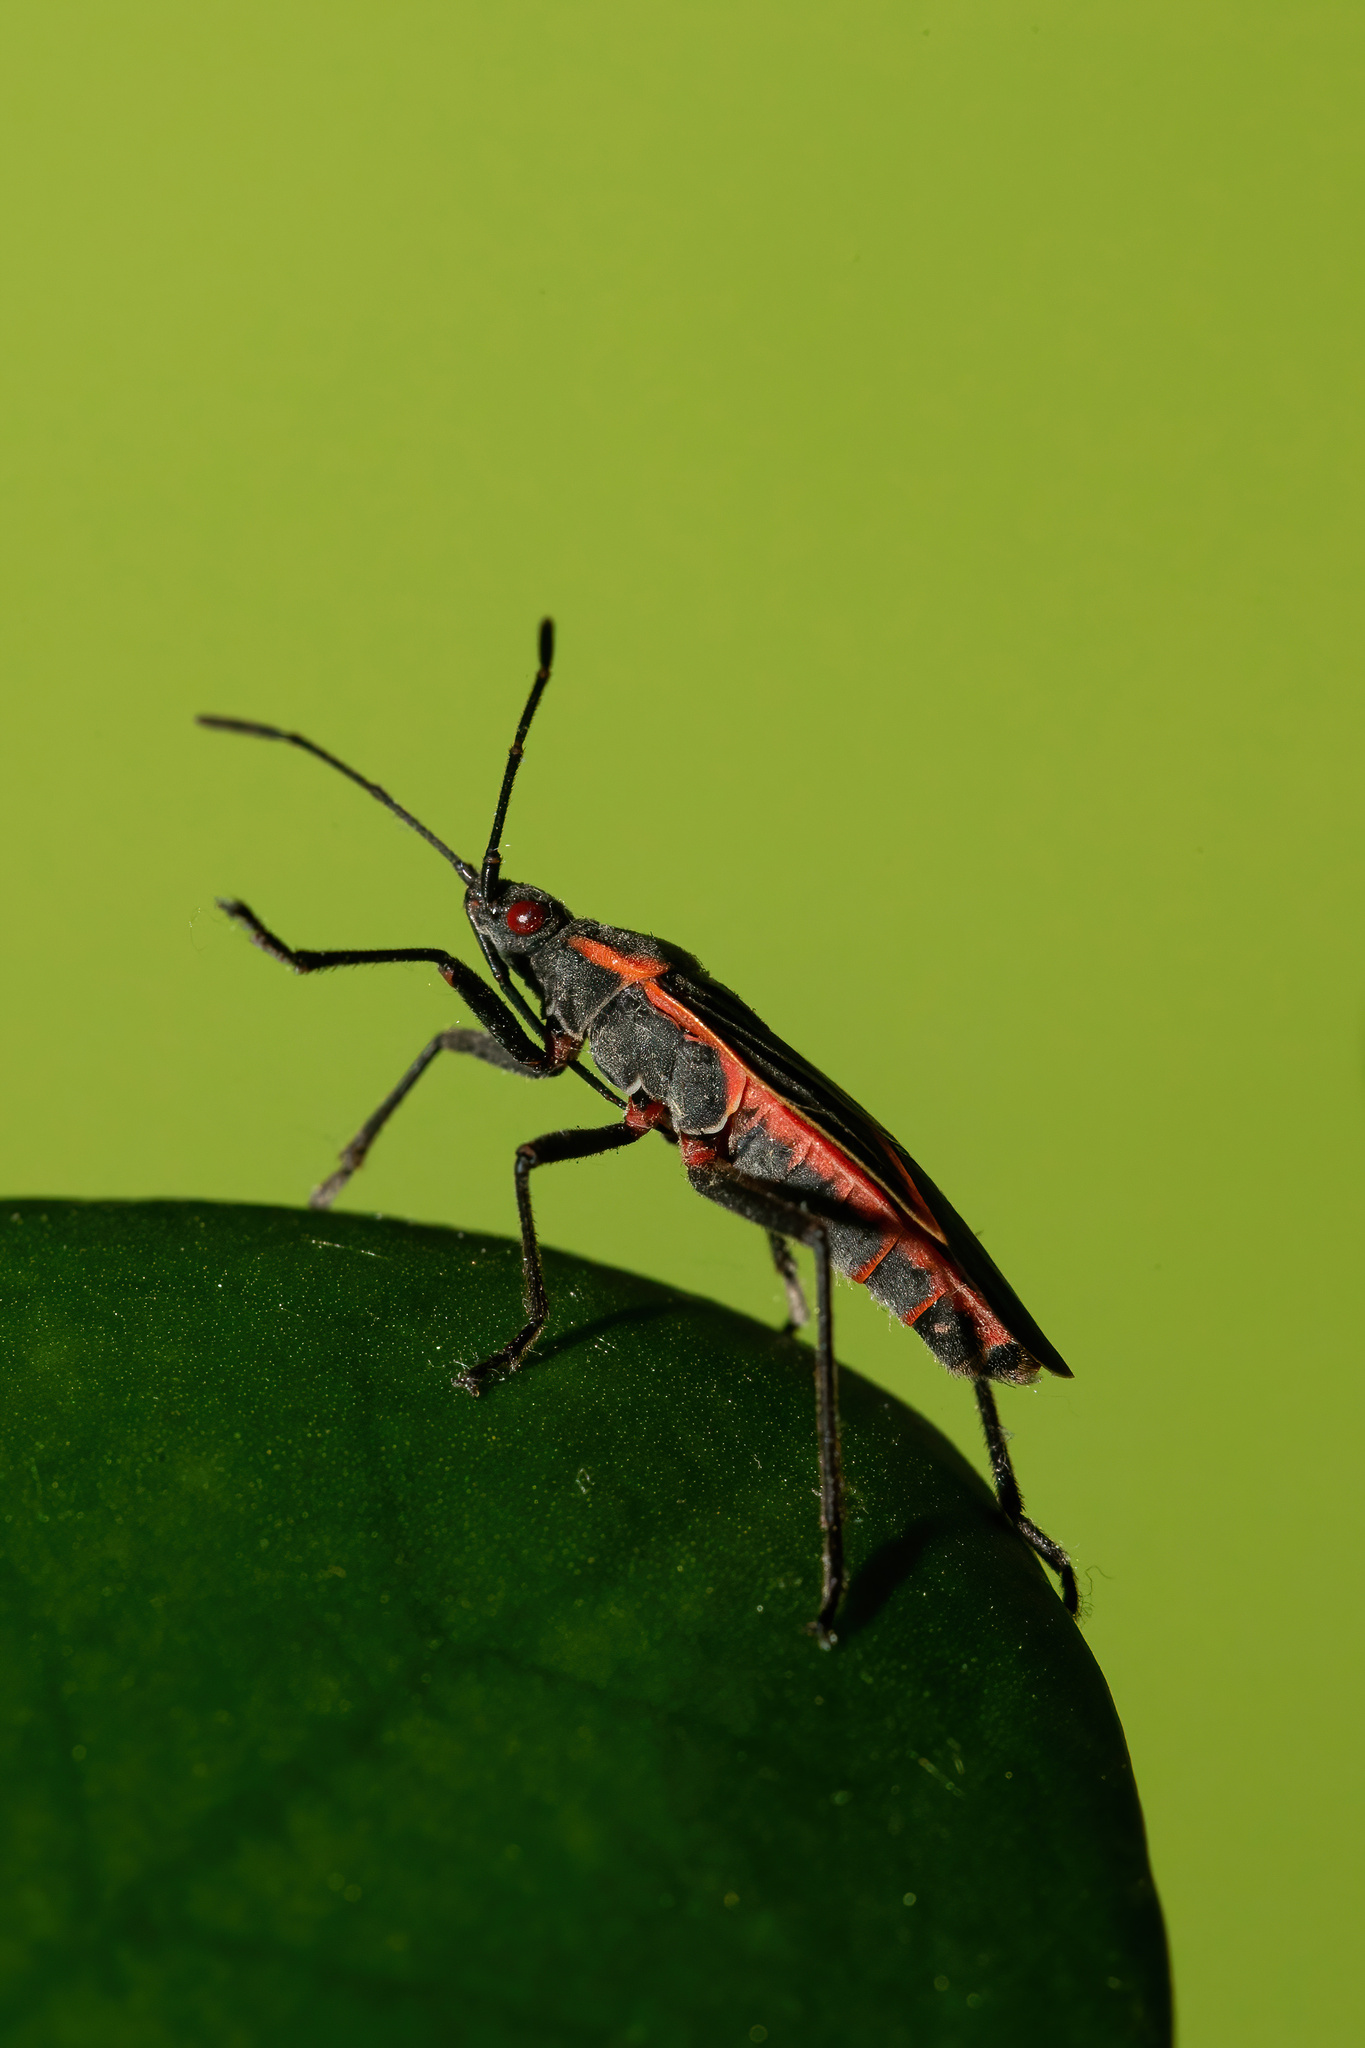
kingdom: Animalia
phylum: Arthropoda
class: Insecta
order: Hemiptera
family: Rhopalidae
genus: Boisea
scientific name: Boisea trivittata
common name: Boxelder bug
